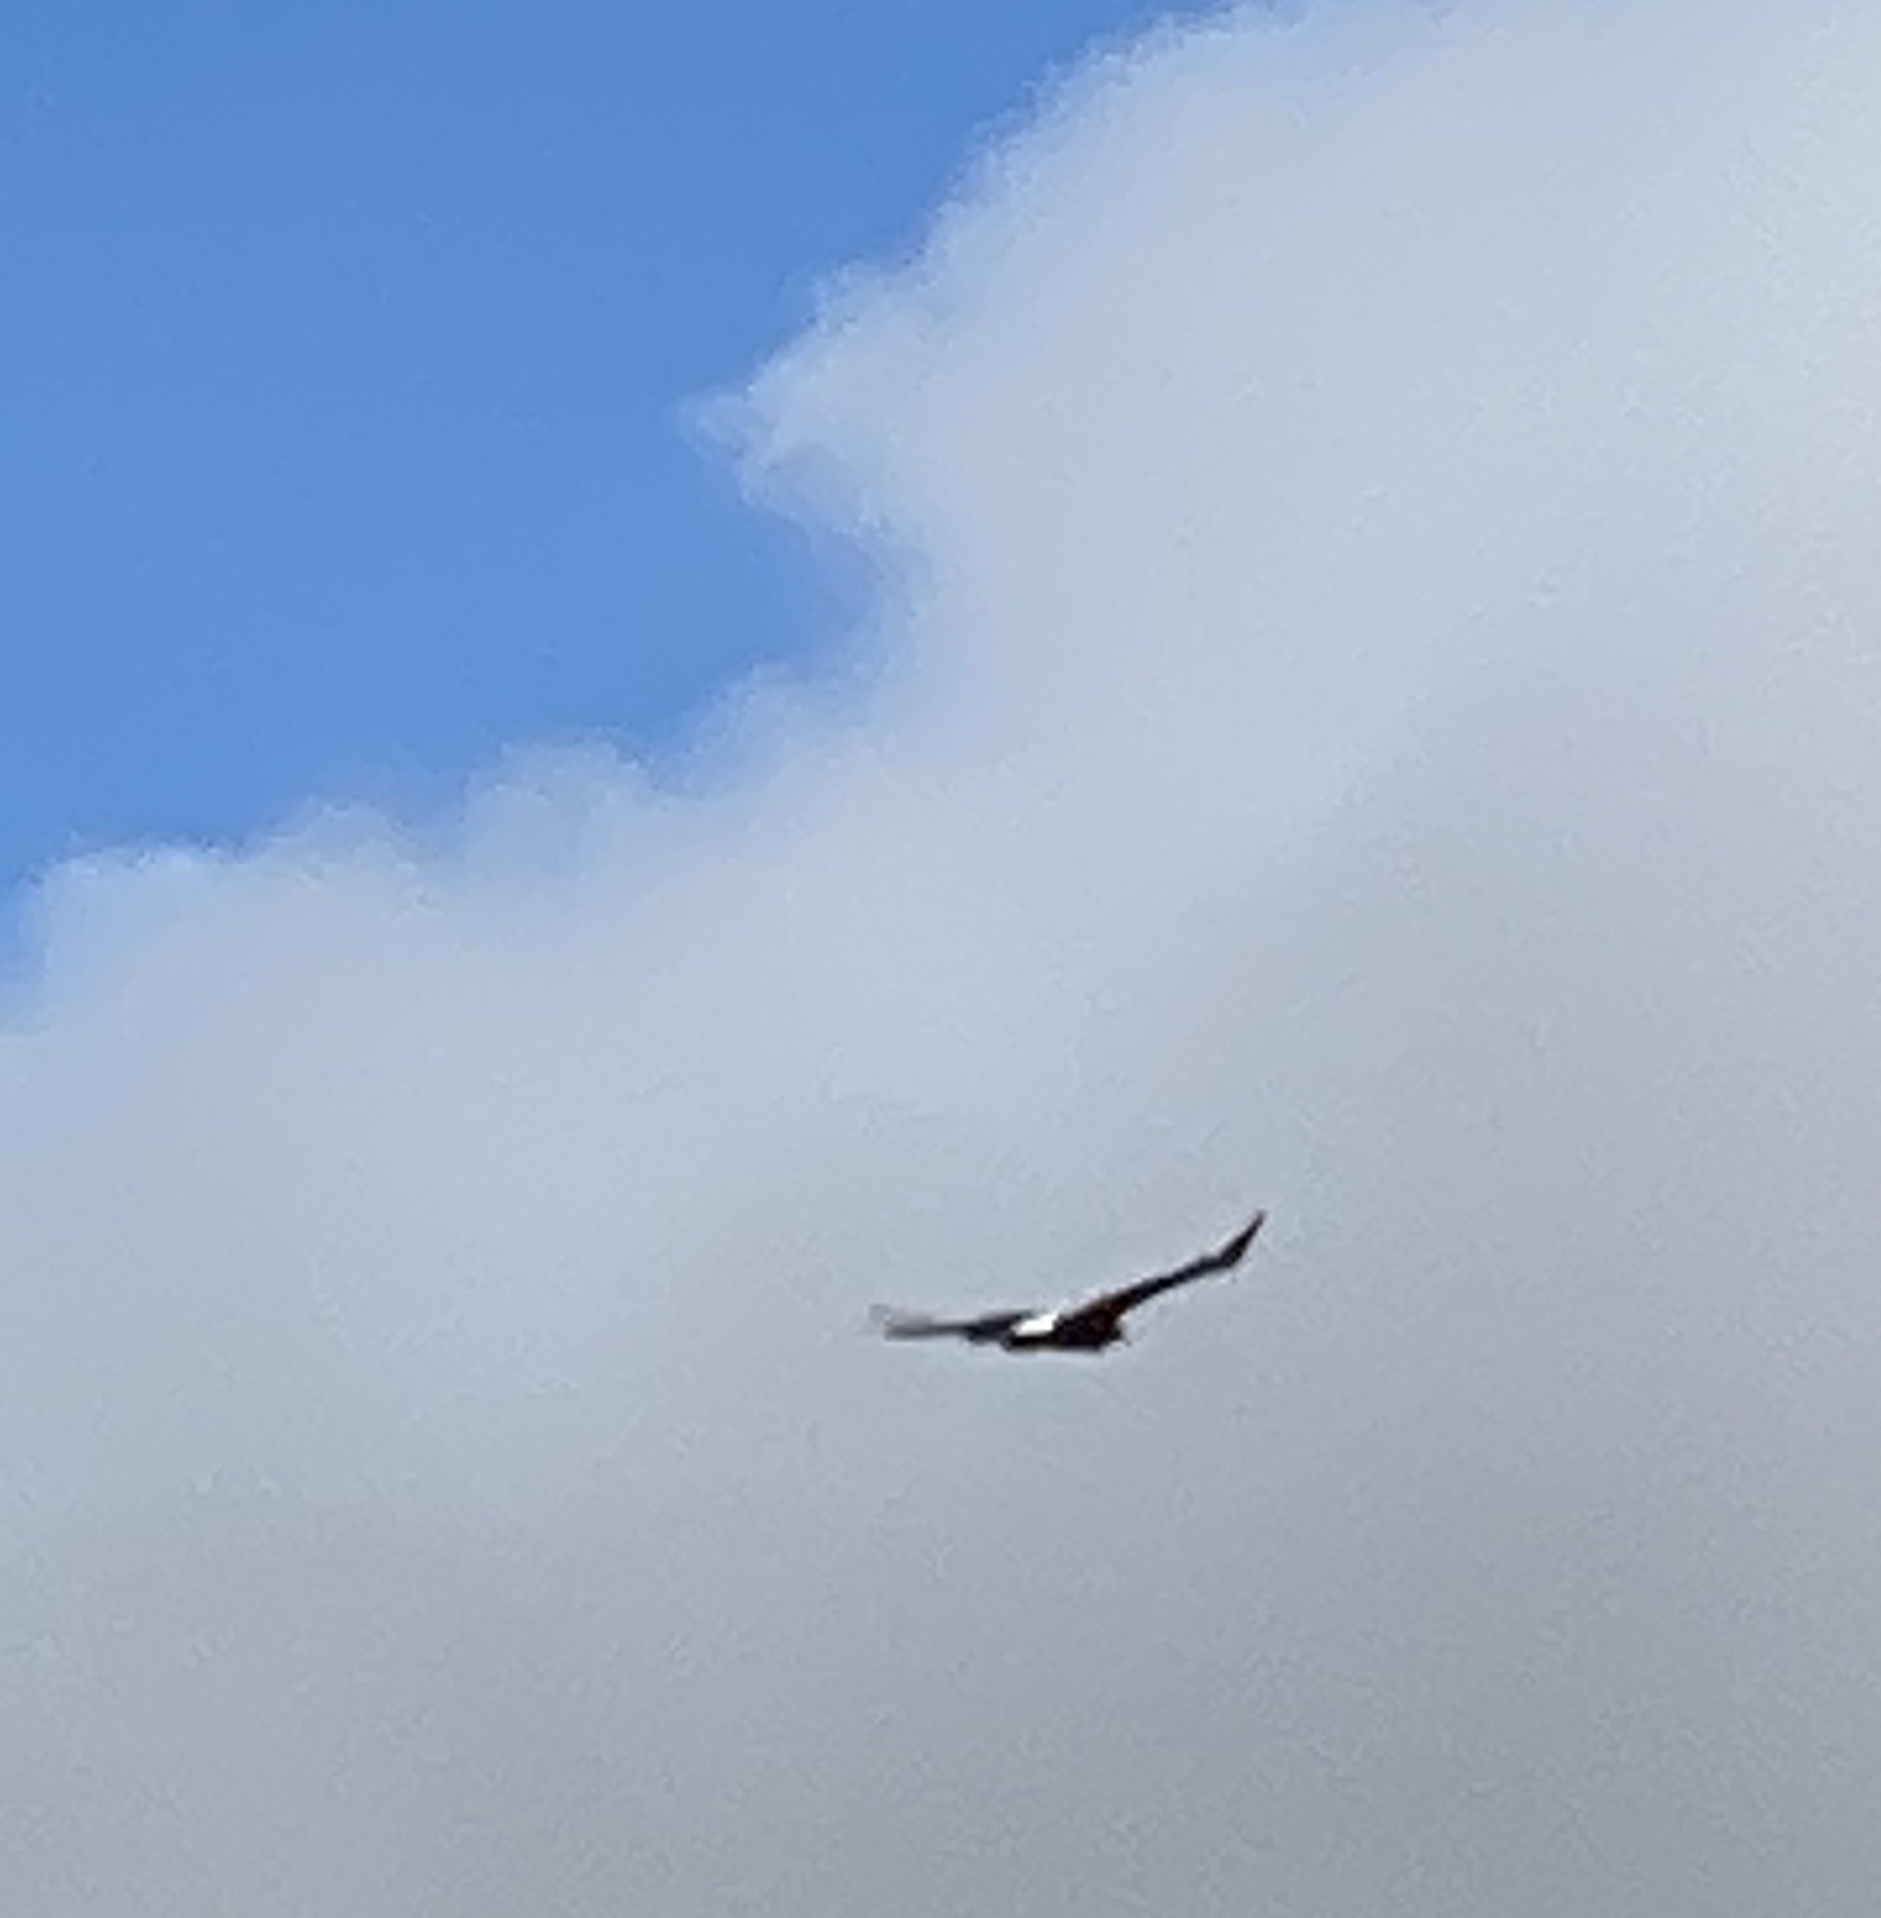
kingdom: Animalia
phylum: Chordata
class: Aves
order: Accipitriformes
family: Accipitridae
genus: Aquila
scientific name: Aquila verreauxii
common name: Verreaux's eagle
